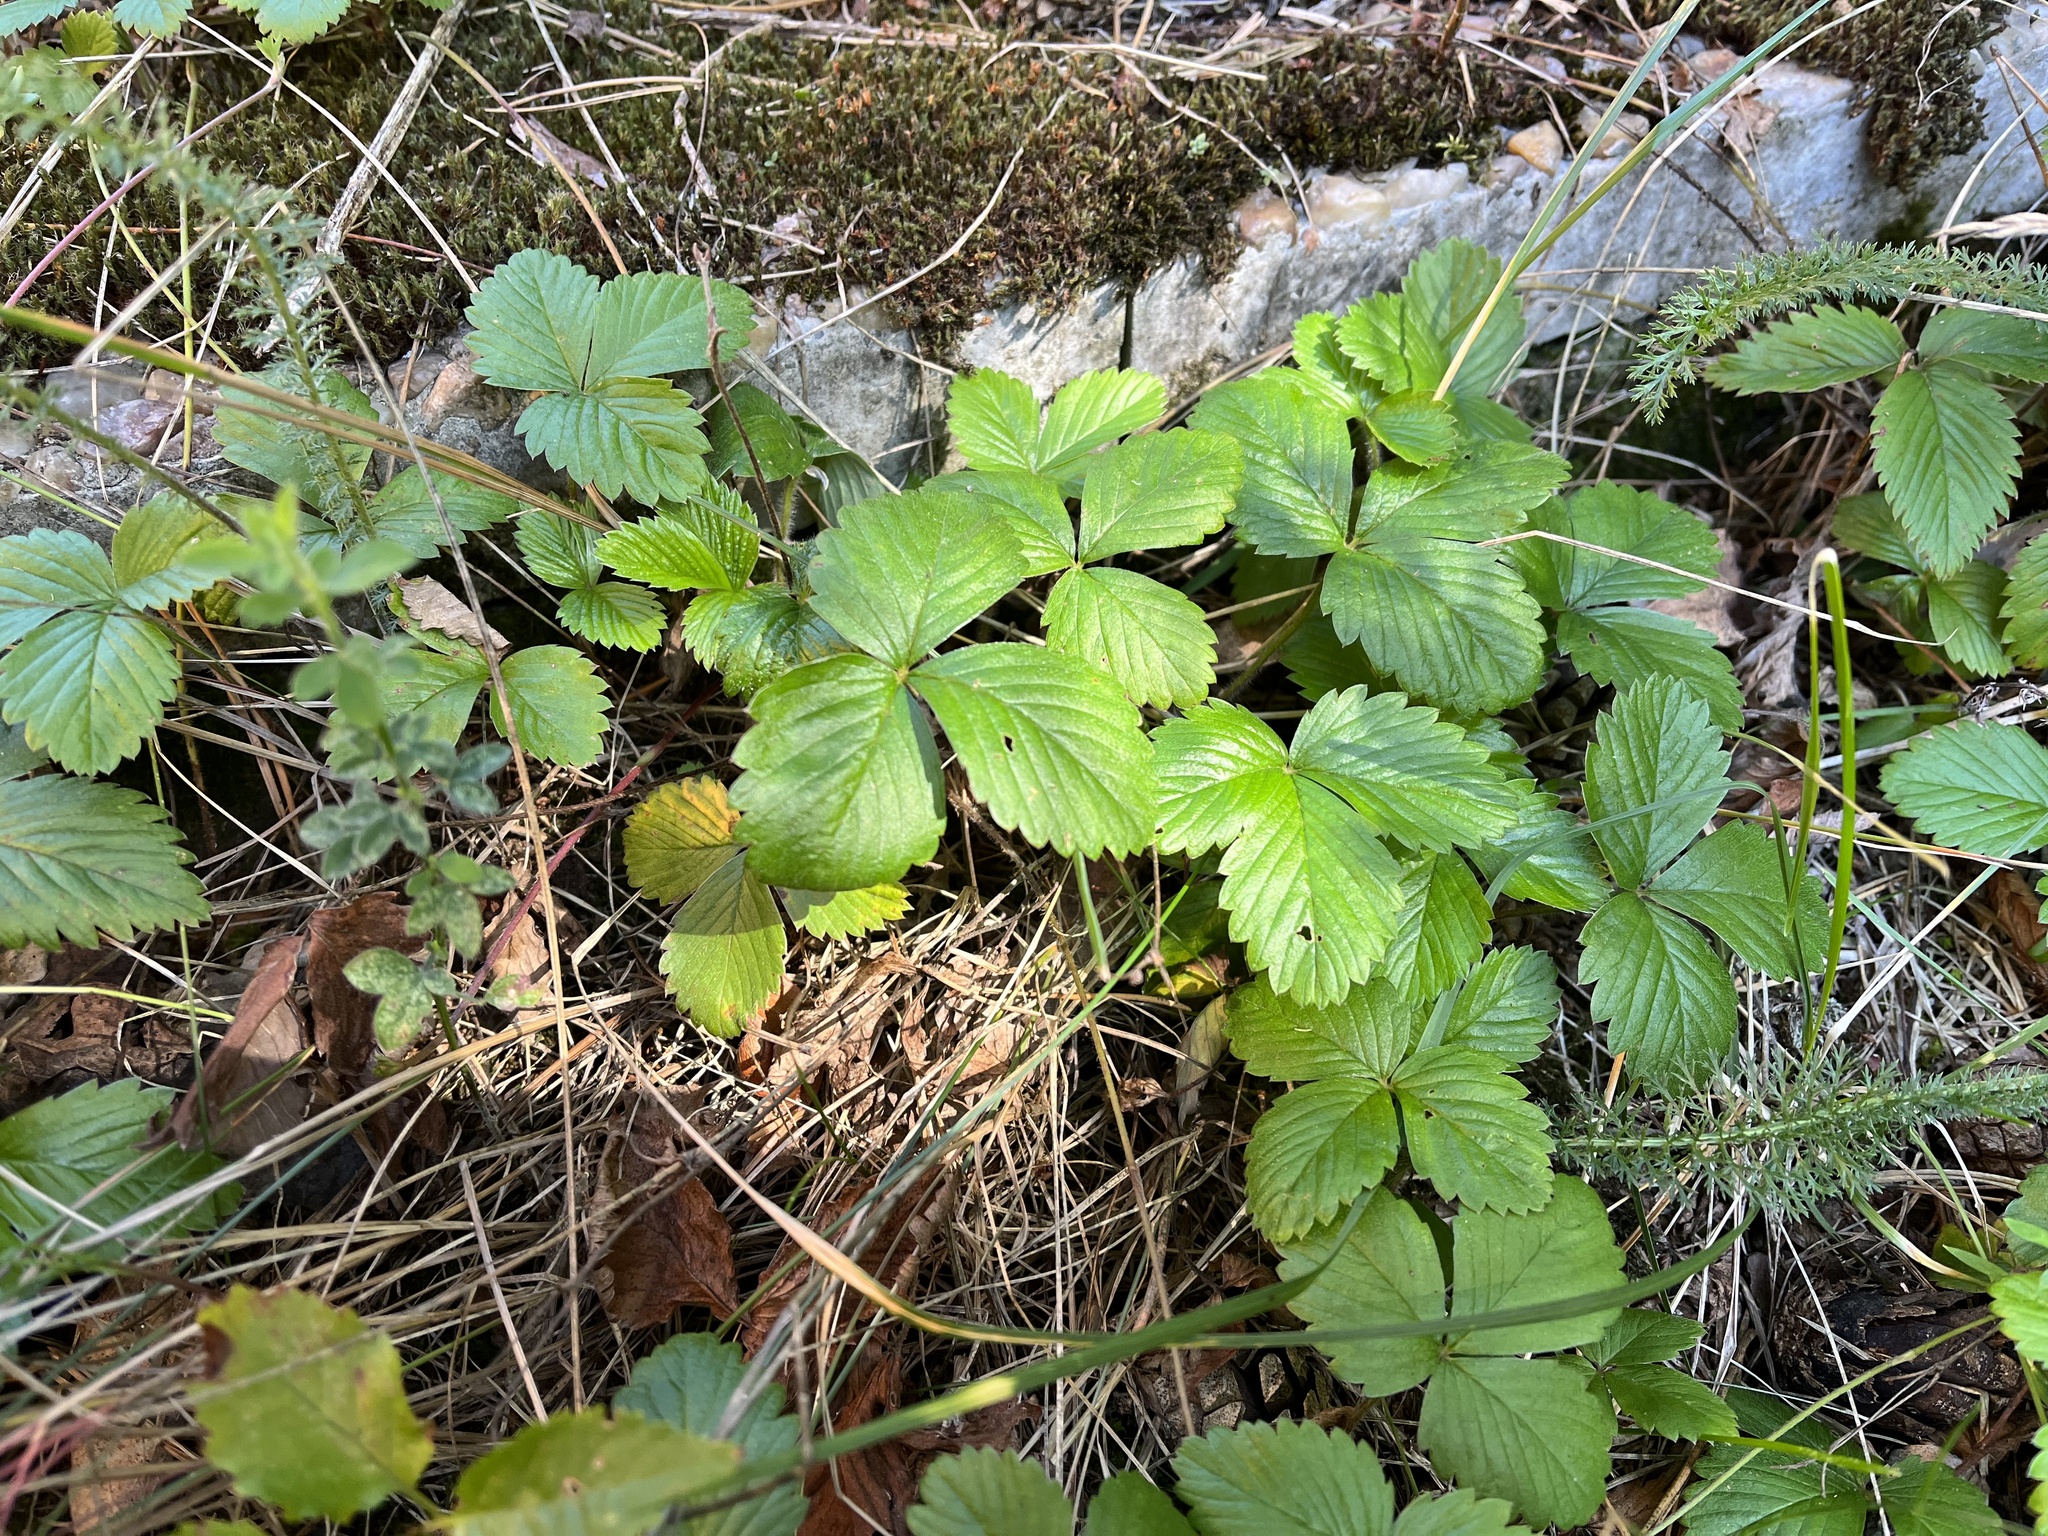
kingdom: Plantae
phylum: Tracheophyta
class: Magnoliopsida
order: Rosales
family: Rosaceae
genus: Fragaria
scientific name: Fragaria vesca
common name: Wild strawberry
